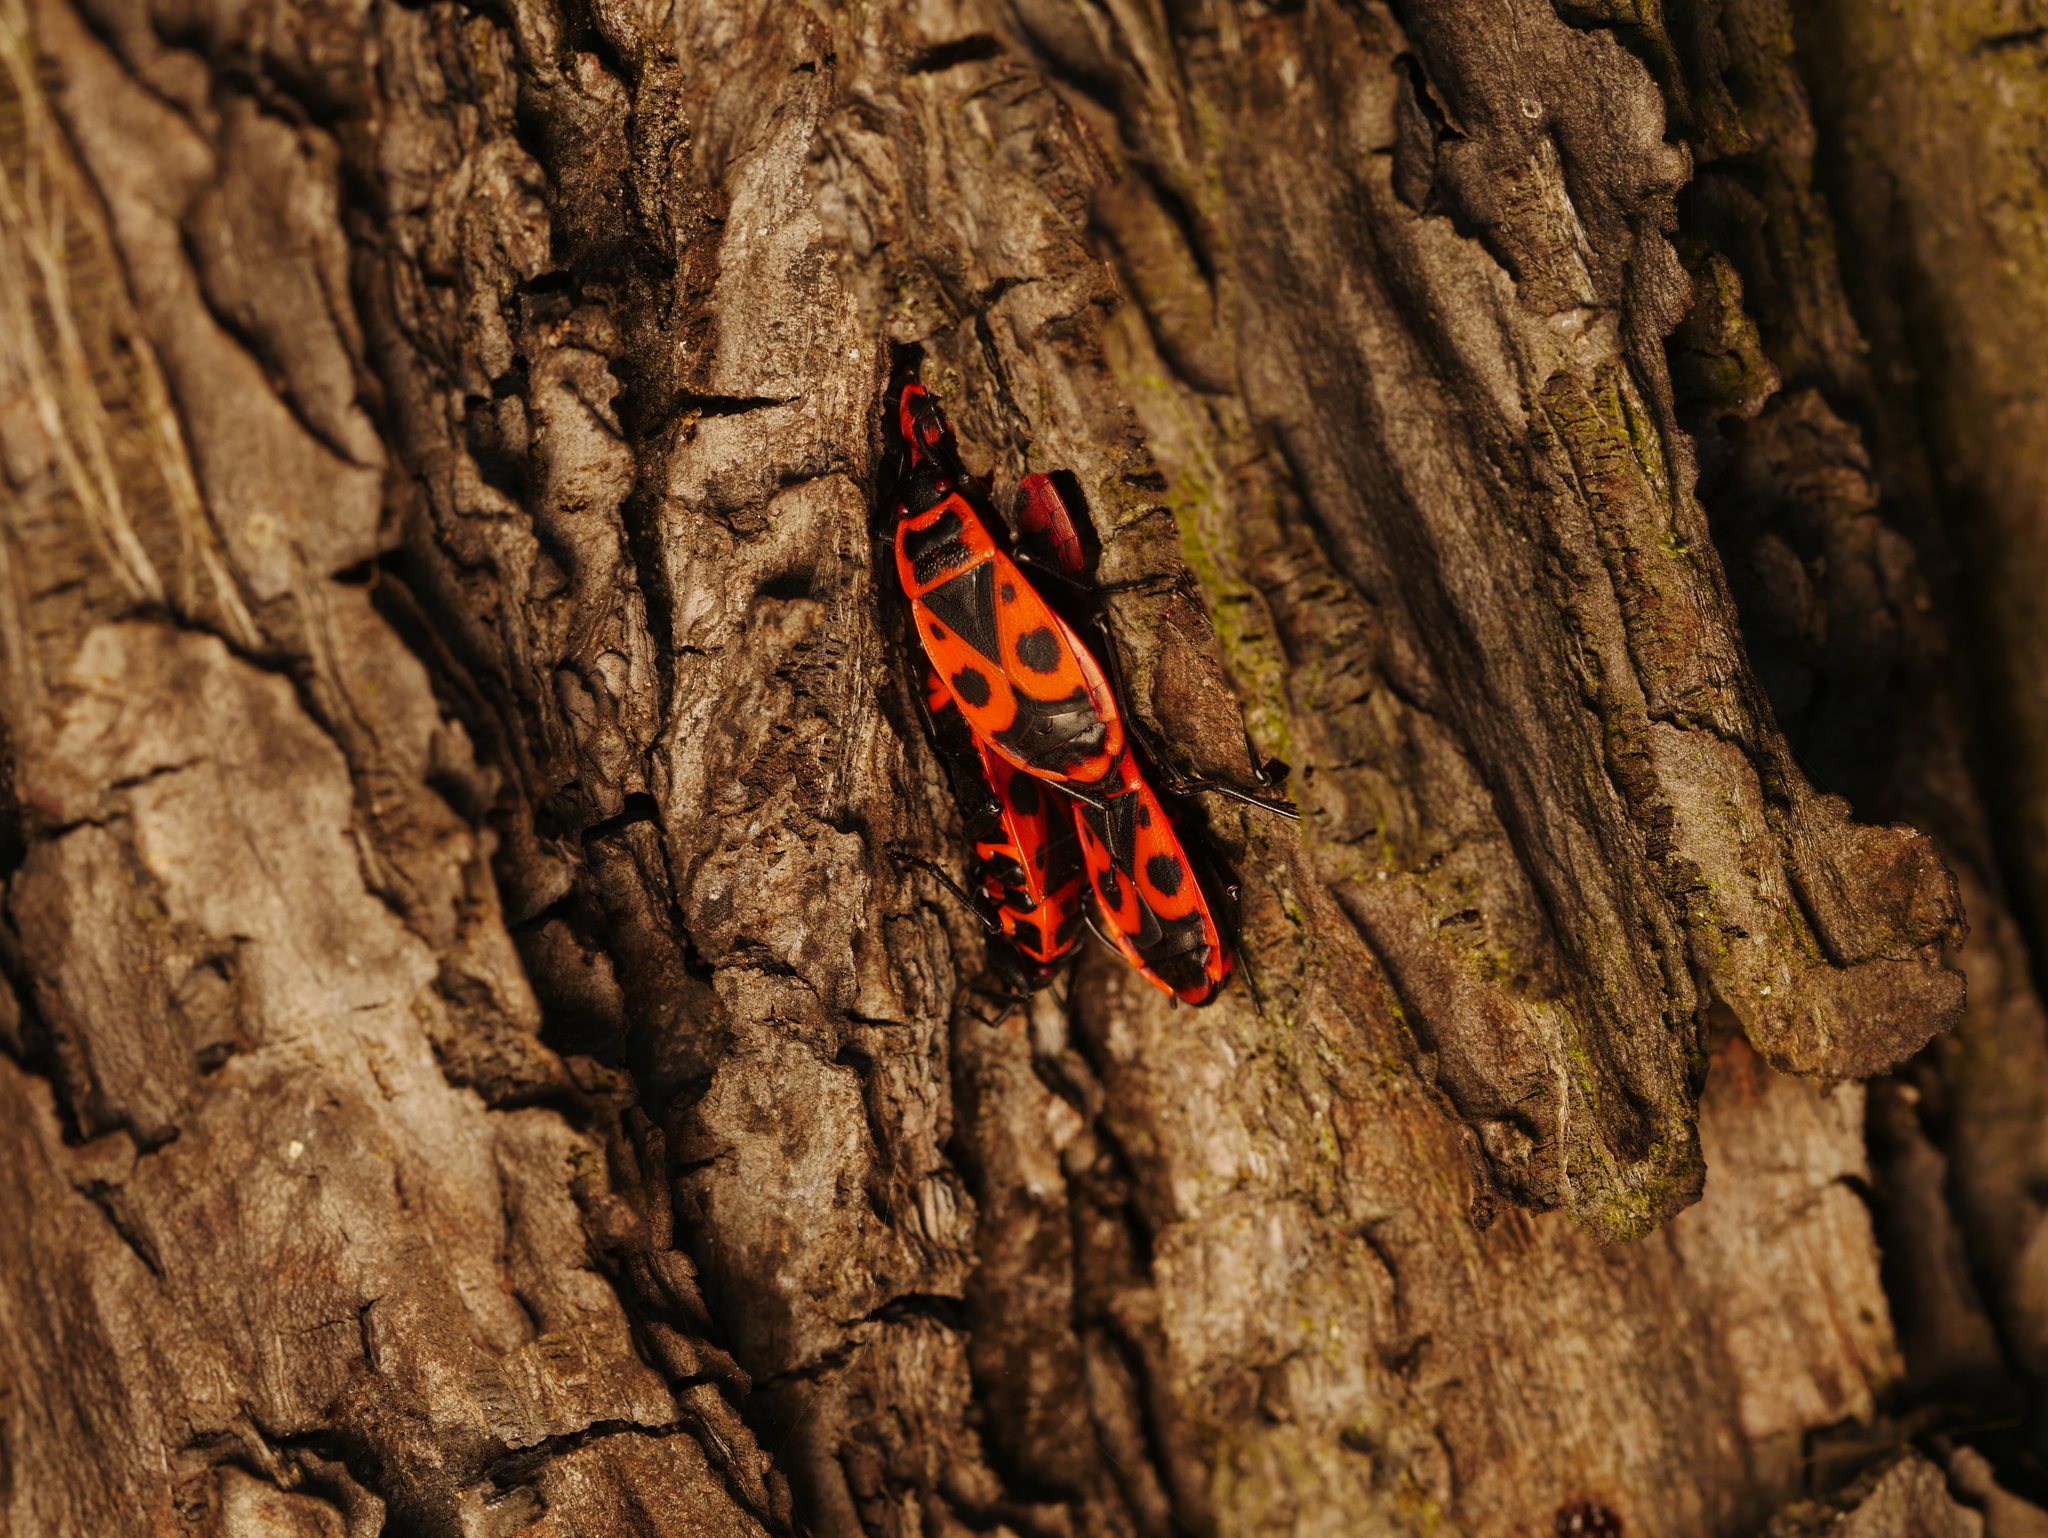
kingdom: Animalia
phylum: Arthropoda
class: Insecta
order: Hemiptera
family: Pyrrhocoridae
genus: Pyrrhocoris
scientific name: Pyrrhocoris apterus
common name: Firebug
